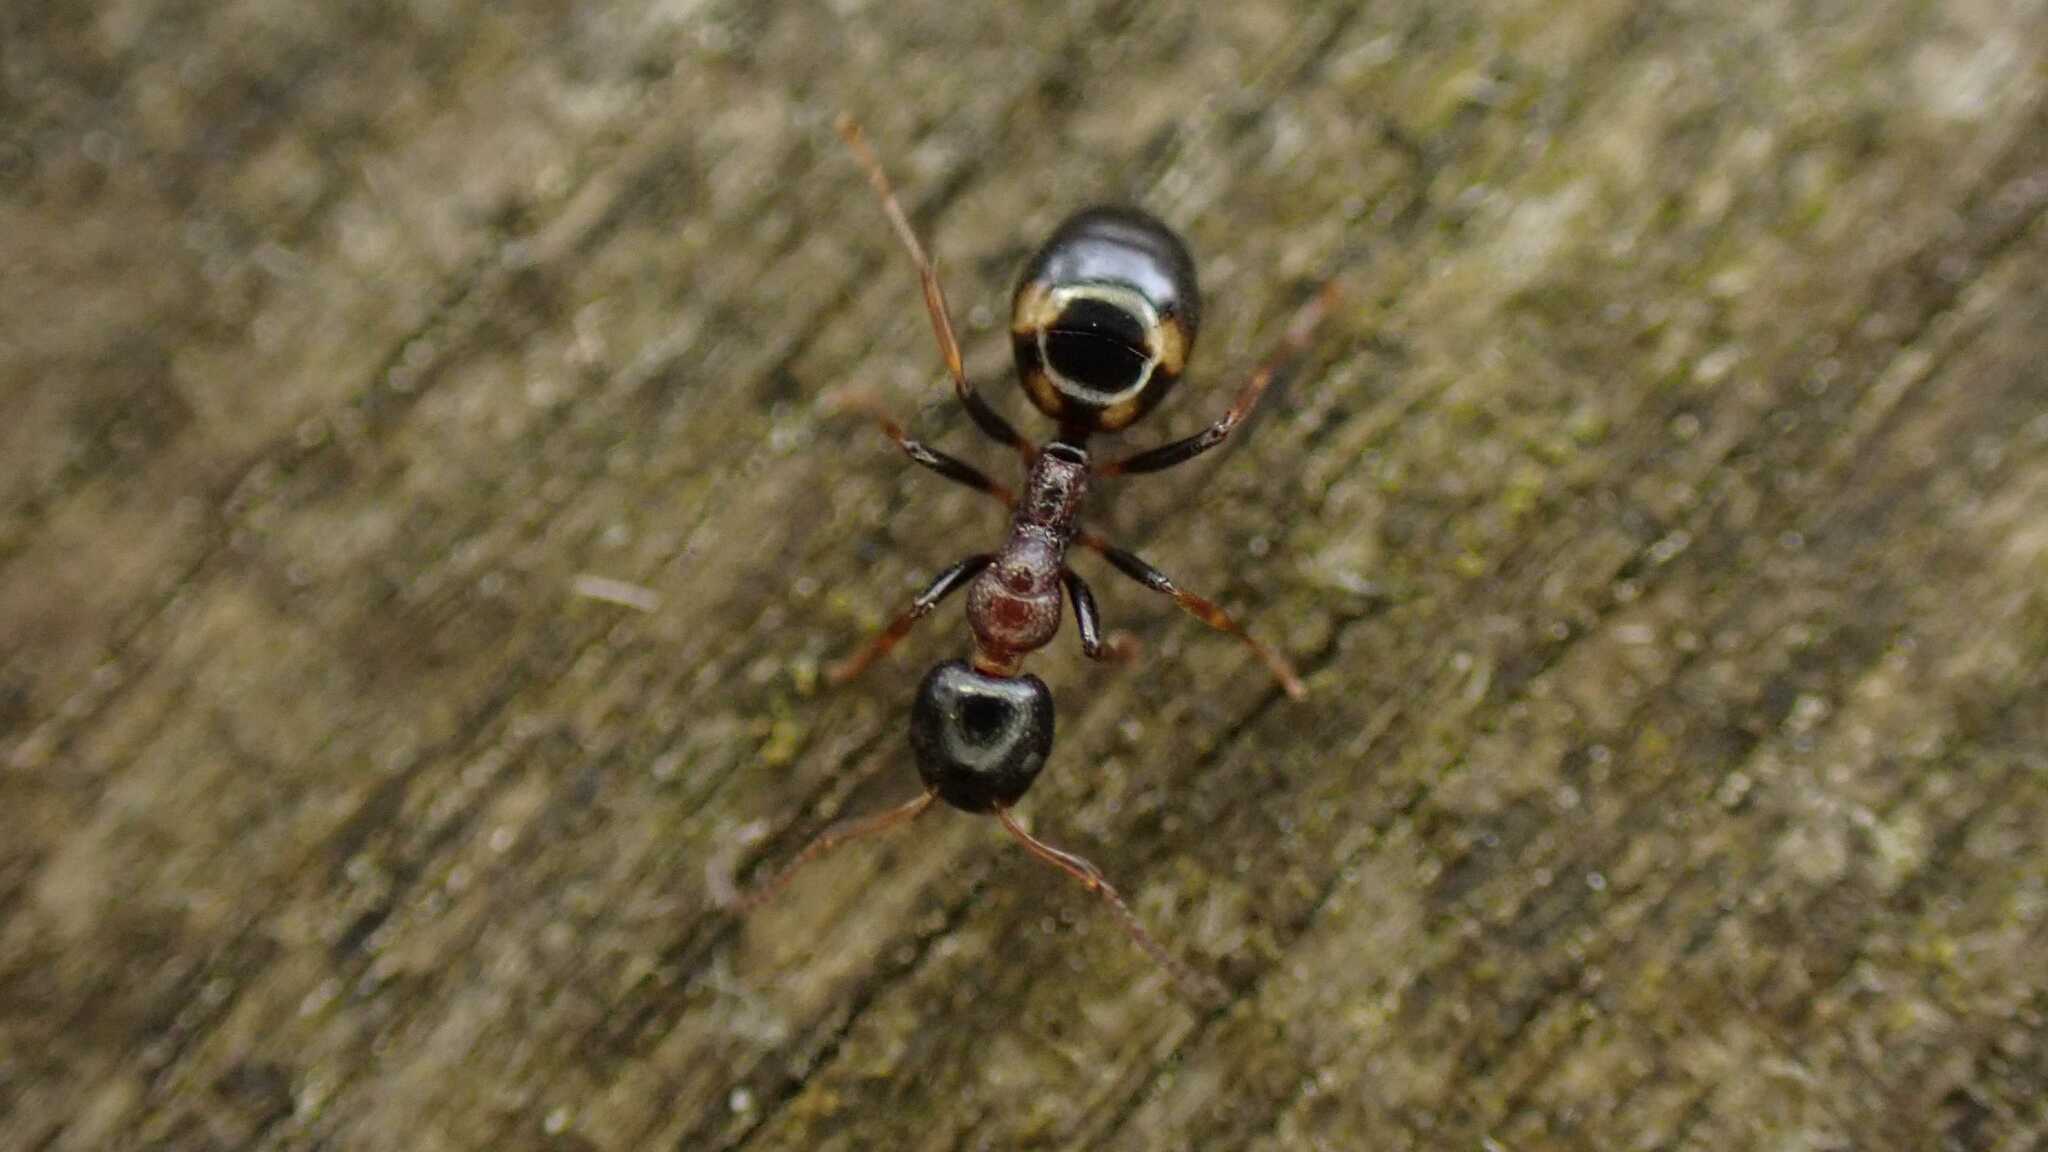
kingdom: Animalia
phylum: Arthropoda
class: Insecta
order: Hymenoptera
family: Formicidae
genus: Dolichoderus
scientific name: Dolichoderus quadripunctatus
